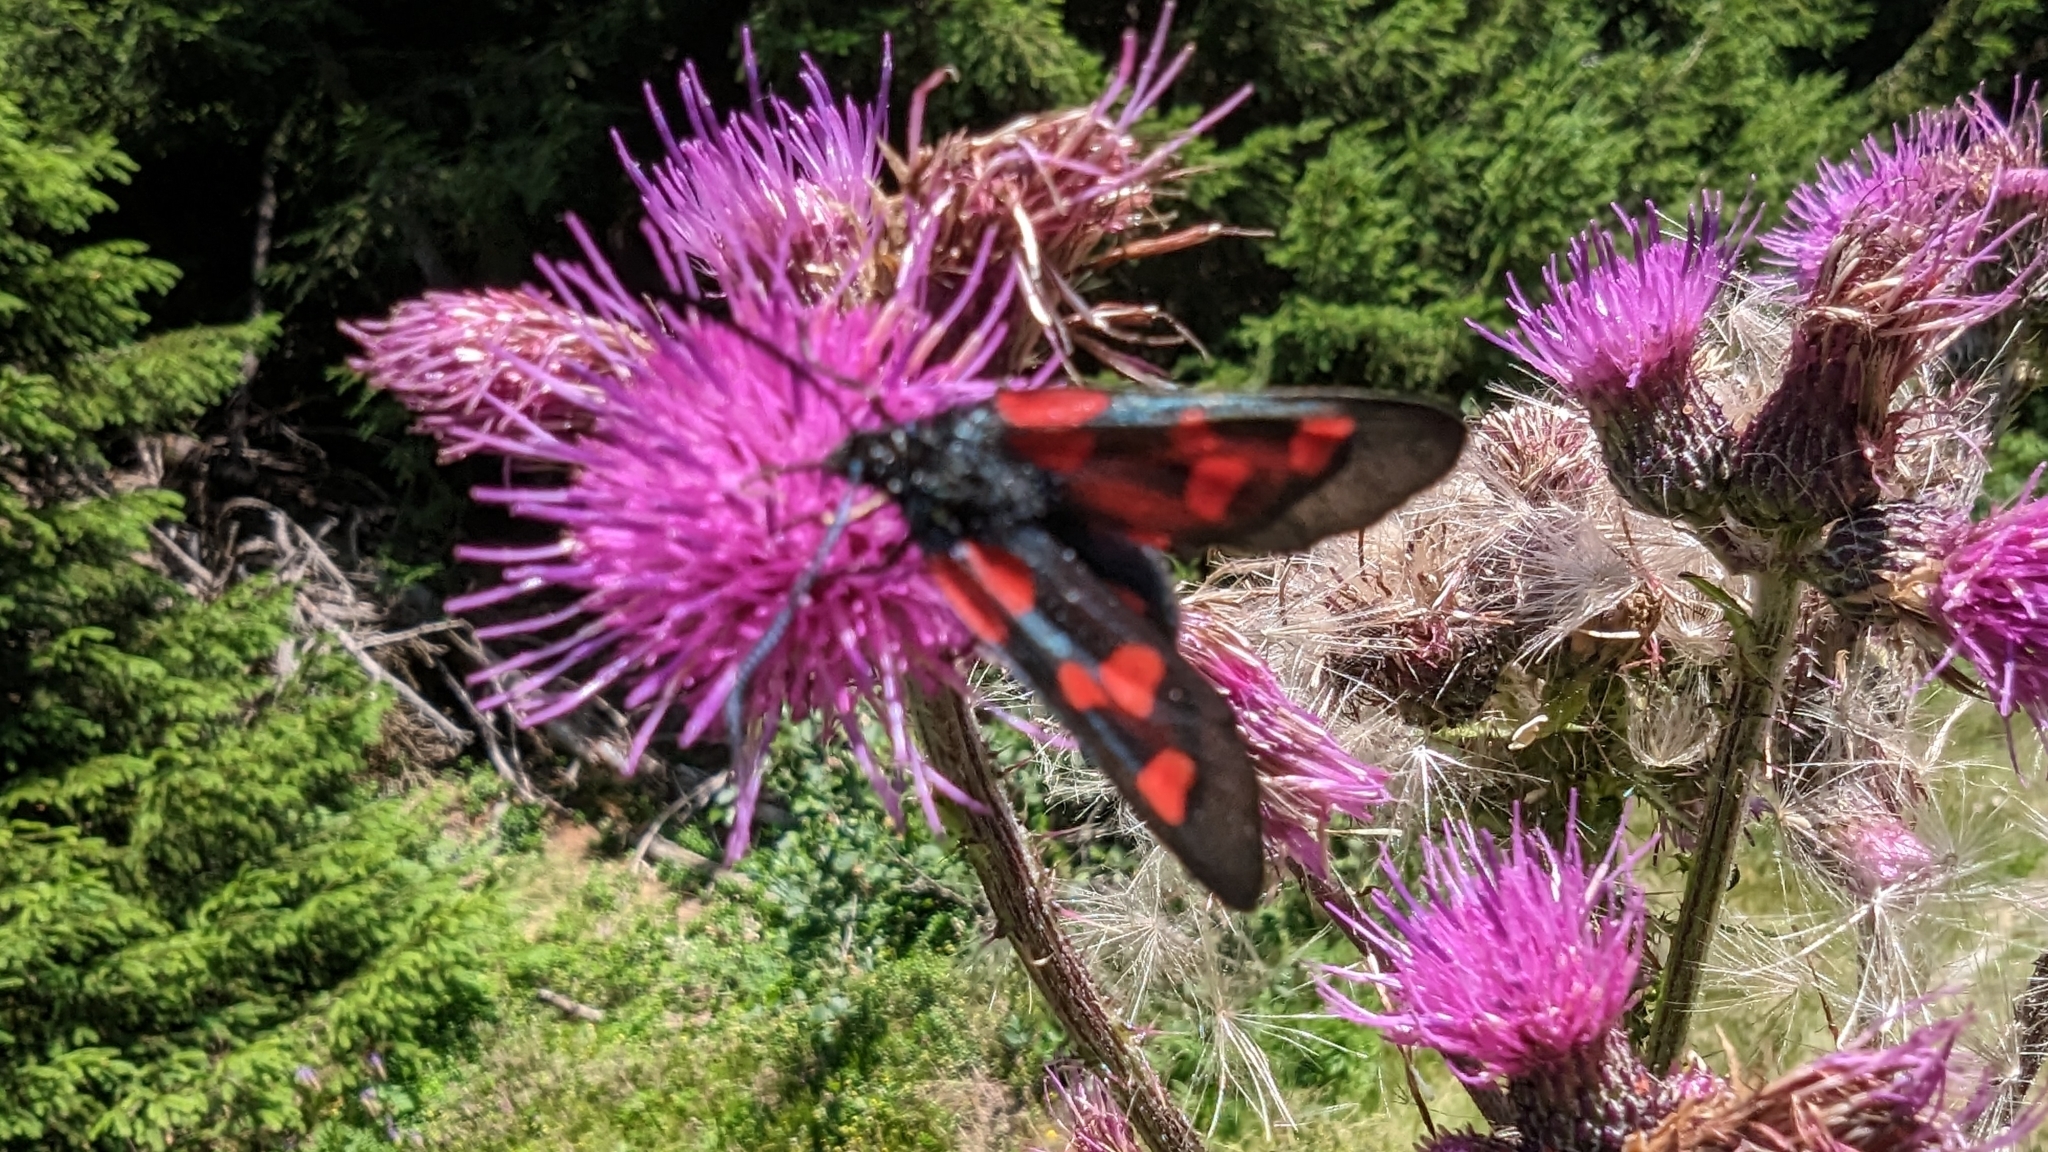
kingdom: Animalia
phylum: Arthropoda
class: Insecta
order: Lepidoptera
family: Zygaenidae
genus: Zygaena
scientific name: Zygaena lonicerae
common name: Narrow-bordered five-spot burnet
